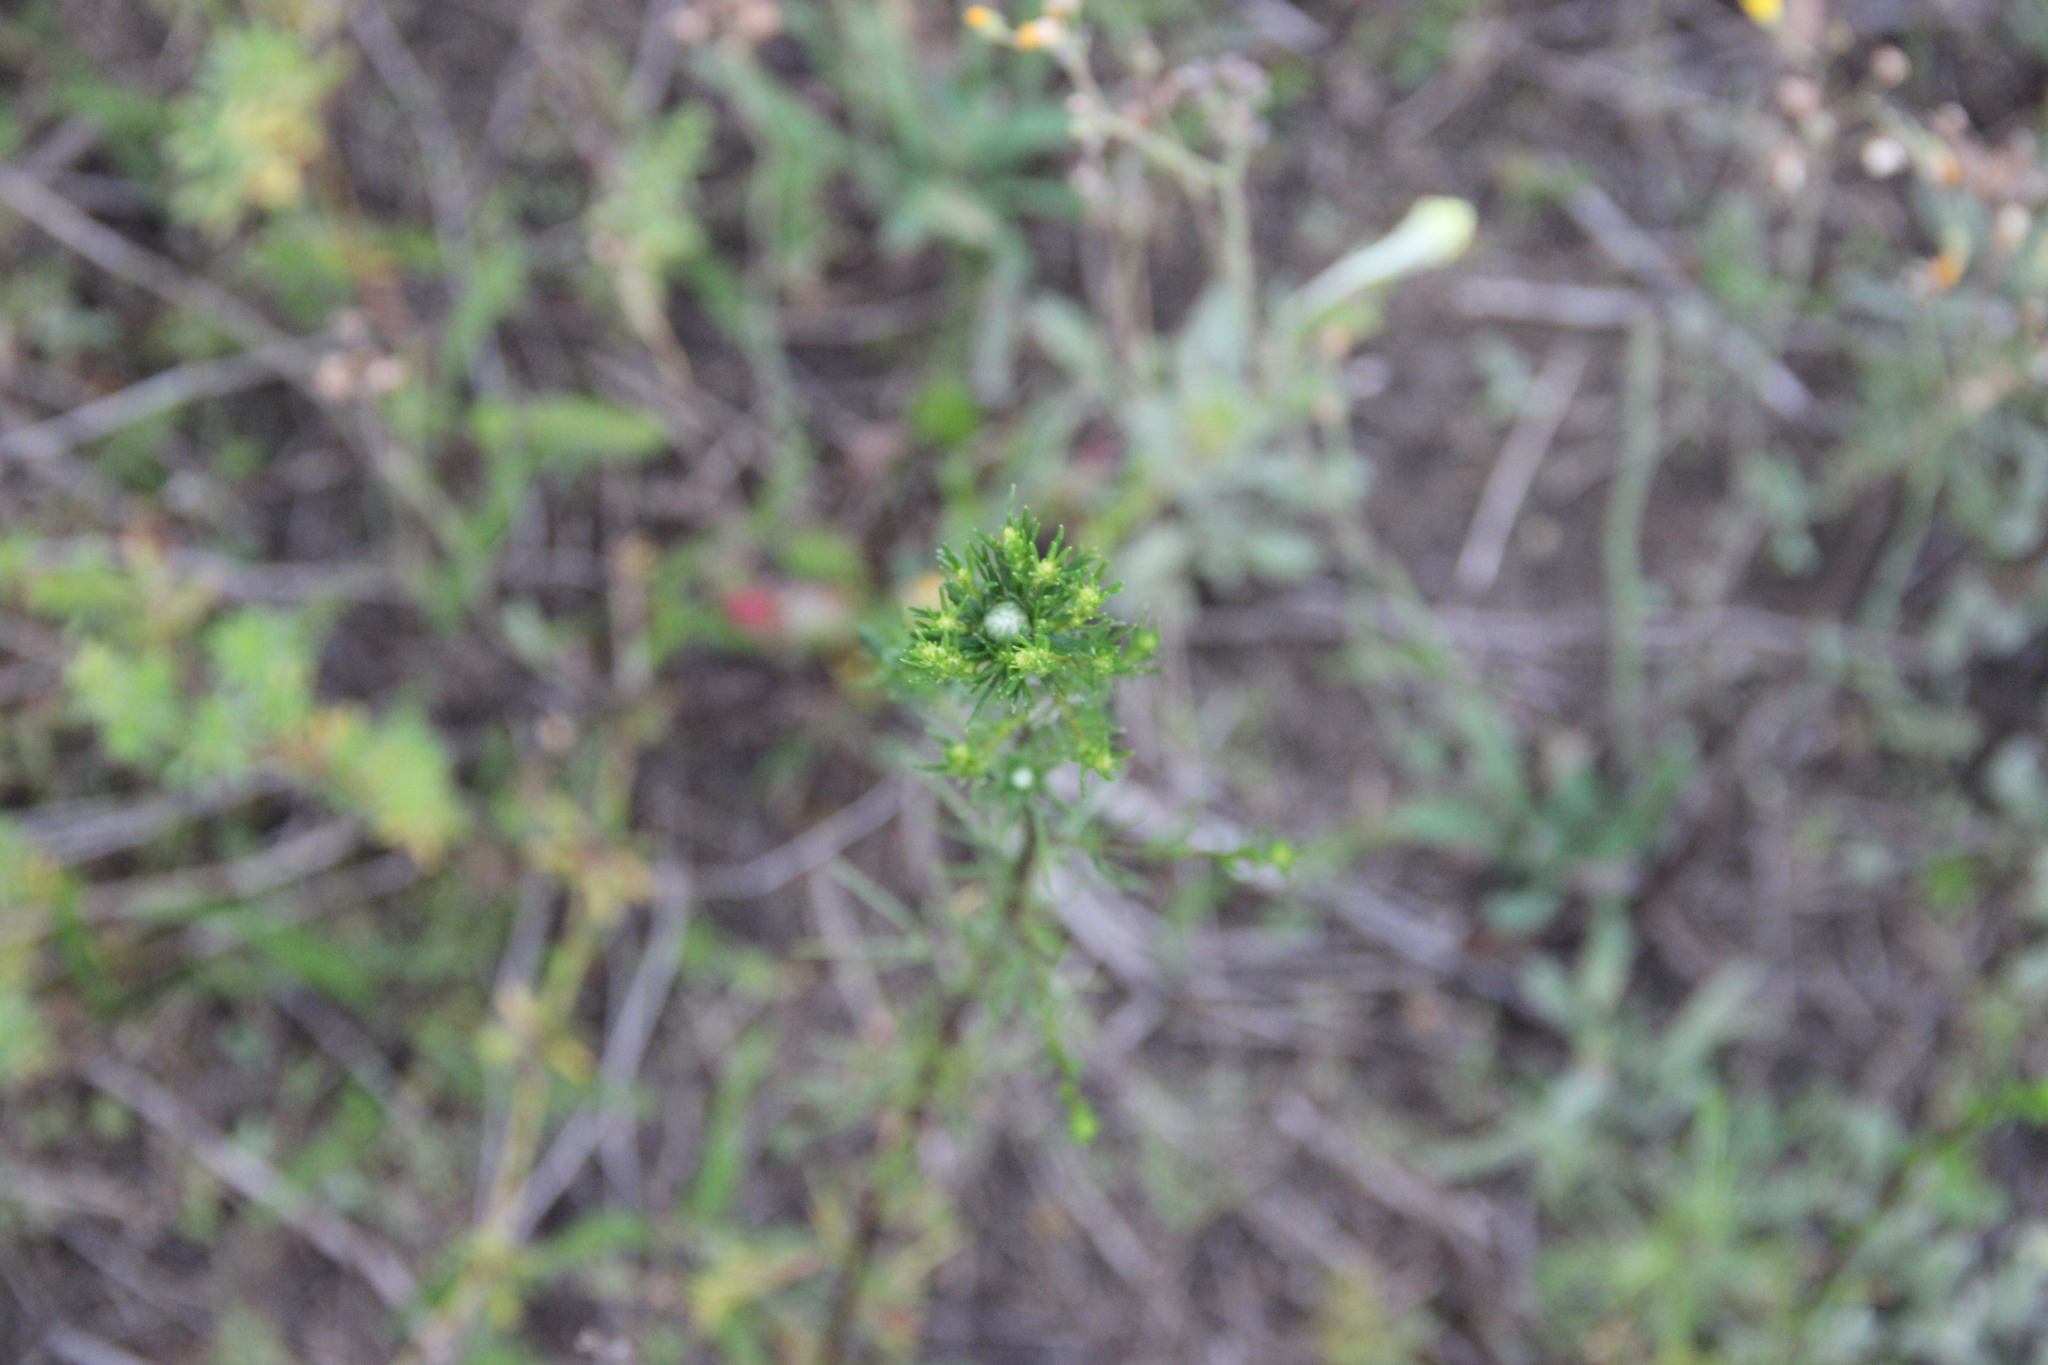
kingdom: Plantae
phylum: Tracheophyta
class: Magnoliopsida
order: Asterales
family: Asteraceae
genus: Artemisia
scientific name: Artemisia campestris
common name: Field wormwood
